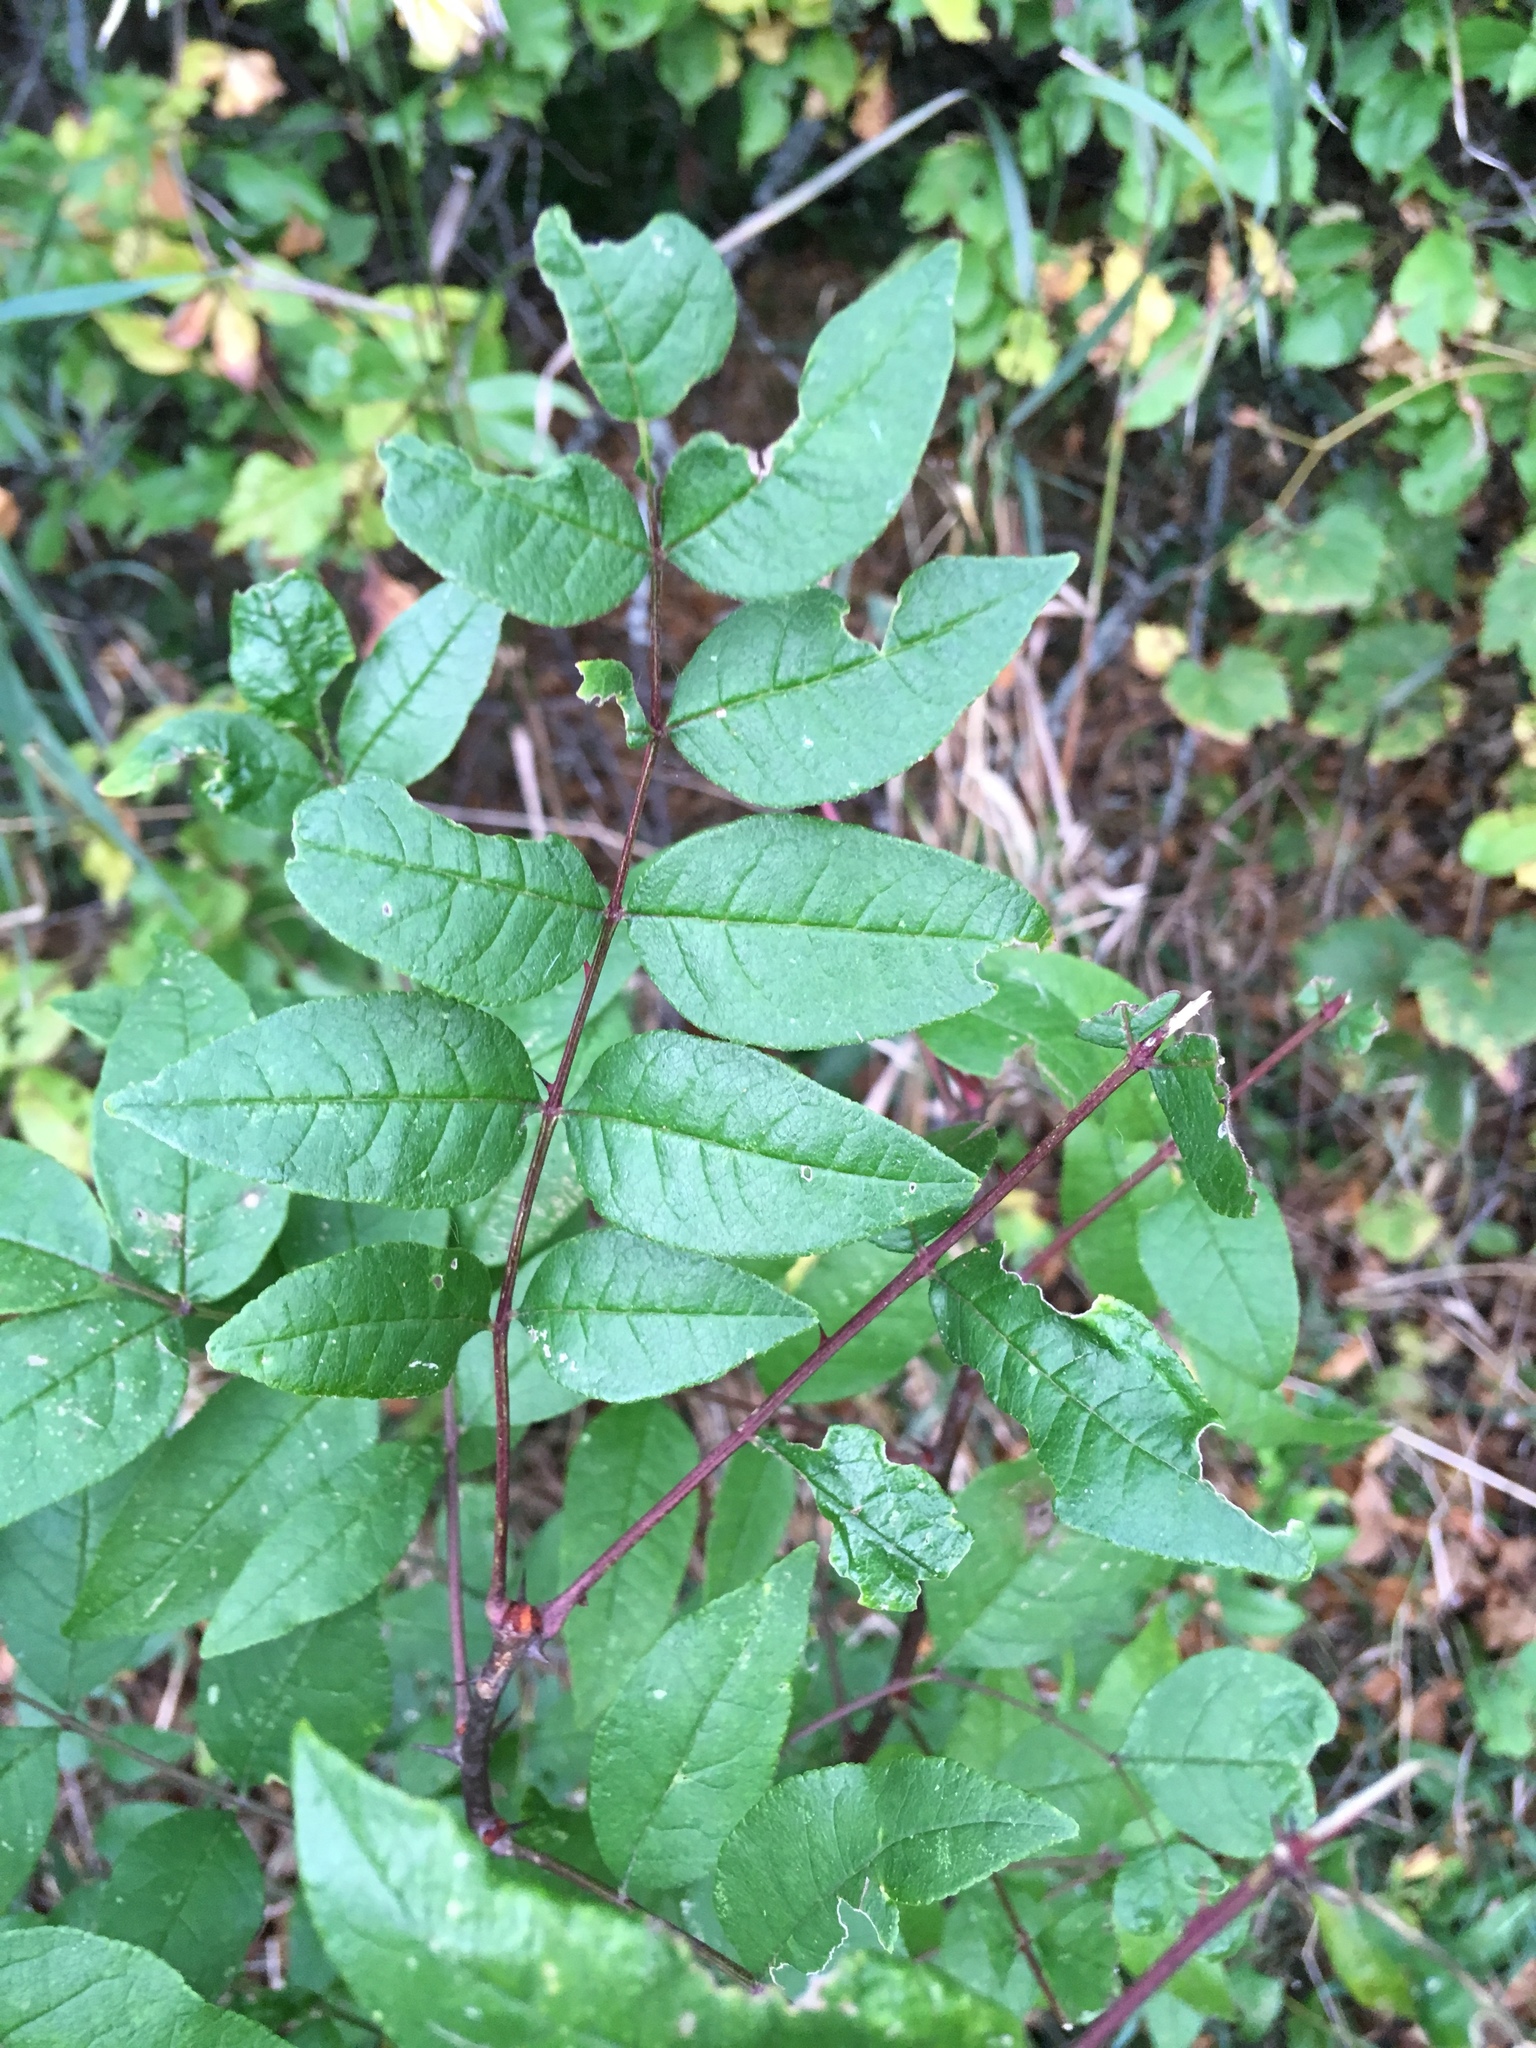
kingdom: Plantae
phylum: Tracheophyta
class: Magnoliopsida
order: Sapindales
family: Rutaceae
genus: Zanthoxylum
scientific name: Zanthoxylum americanum
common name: Northern prickly-ash
